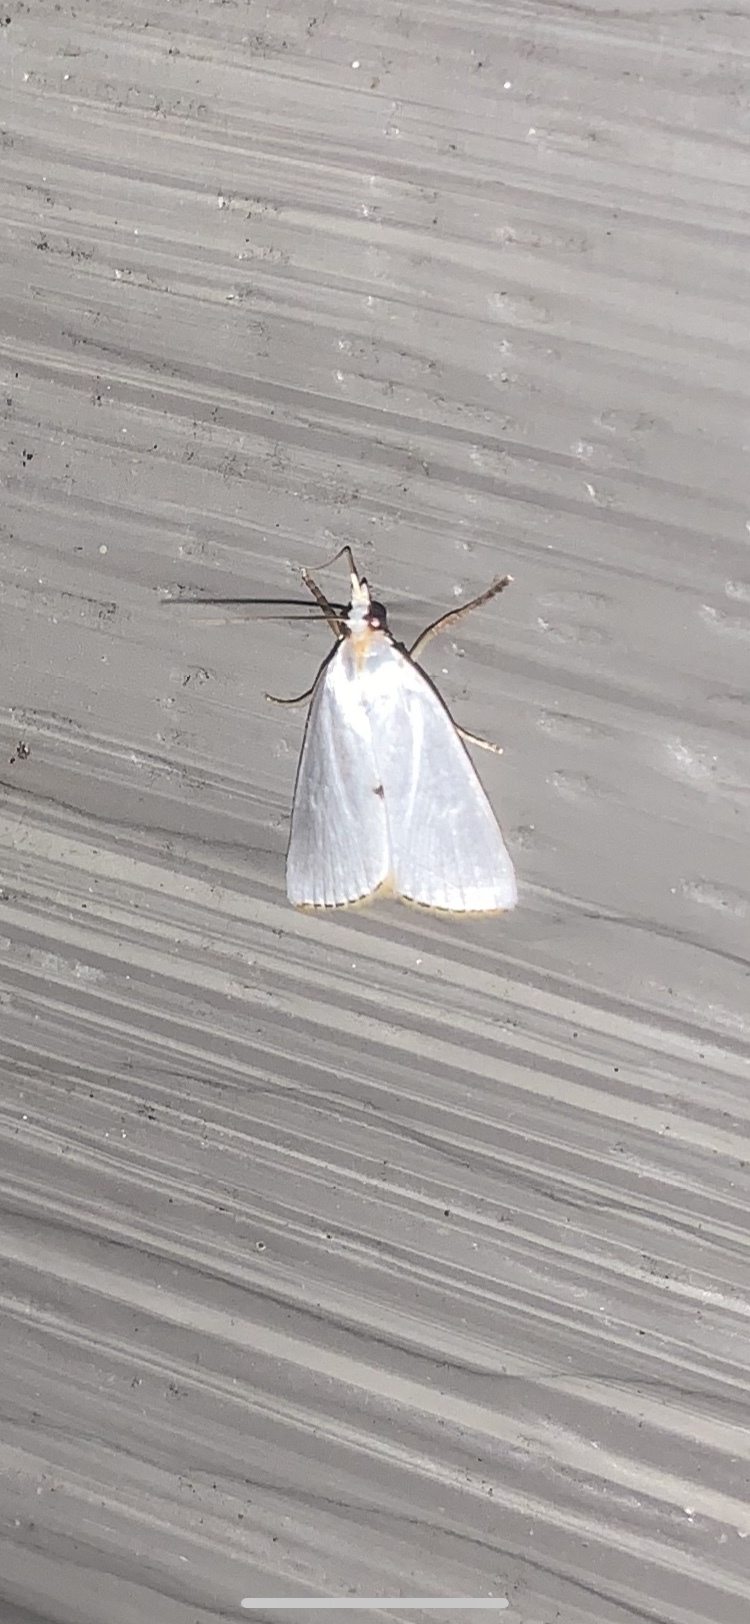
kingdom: Animalia
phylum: Arthropoda
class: Insecta
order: Lepidoptera
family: Crambidae
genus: Argyria
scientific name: Argyria nivalis
